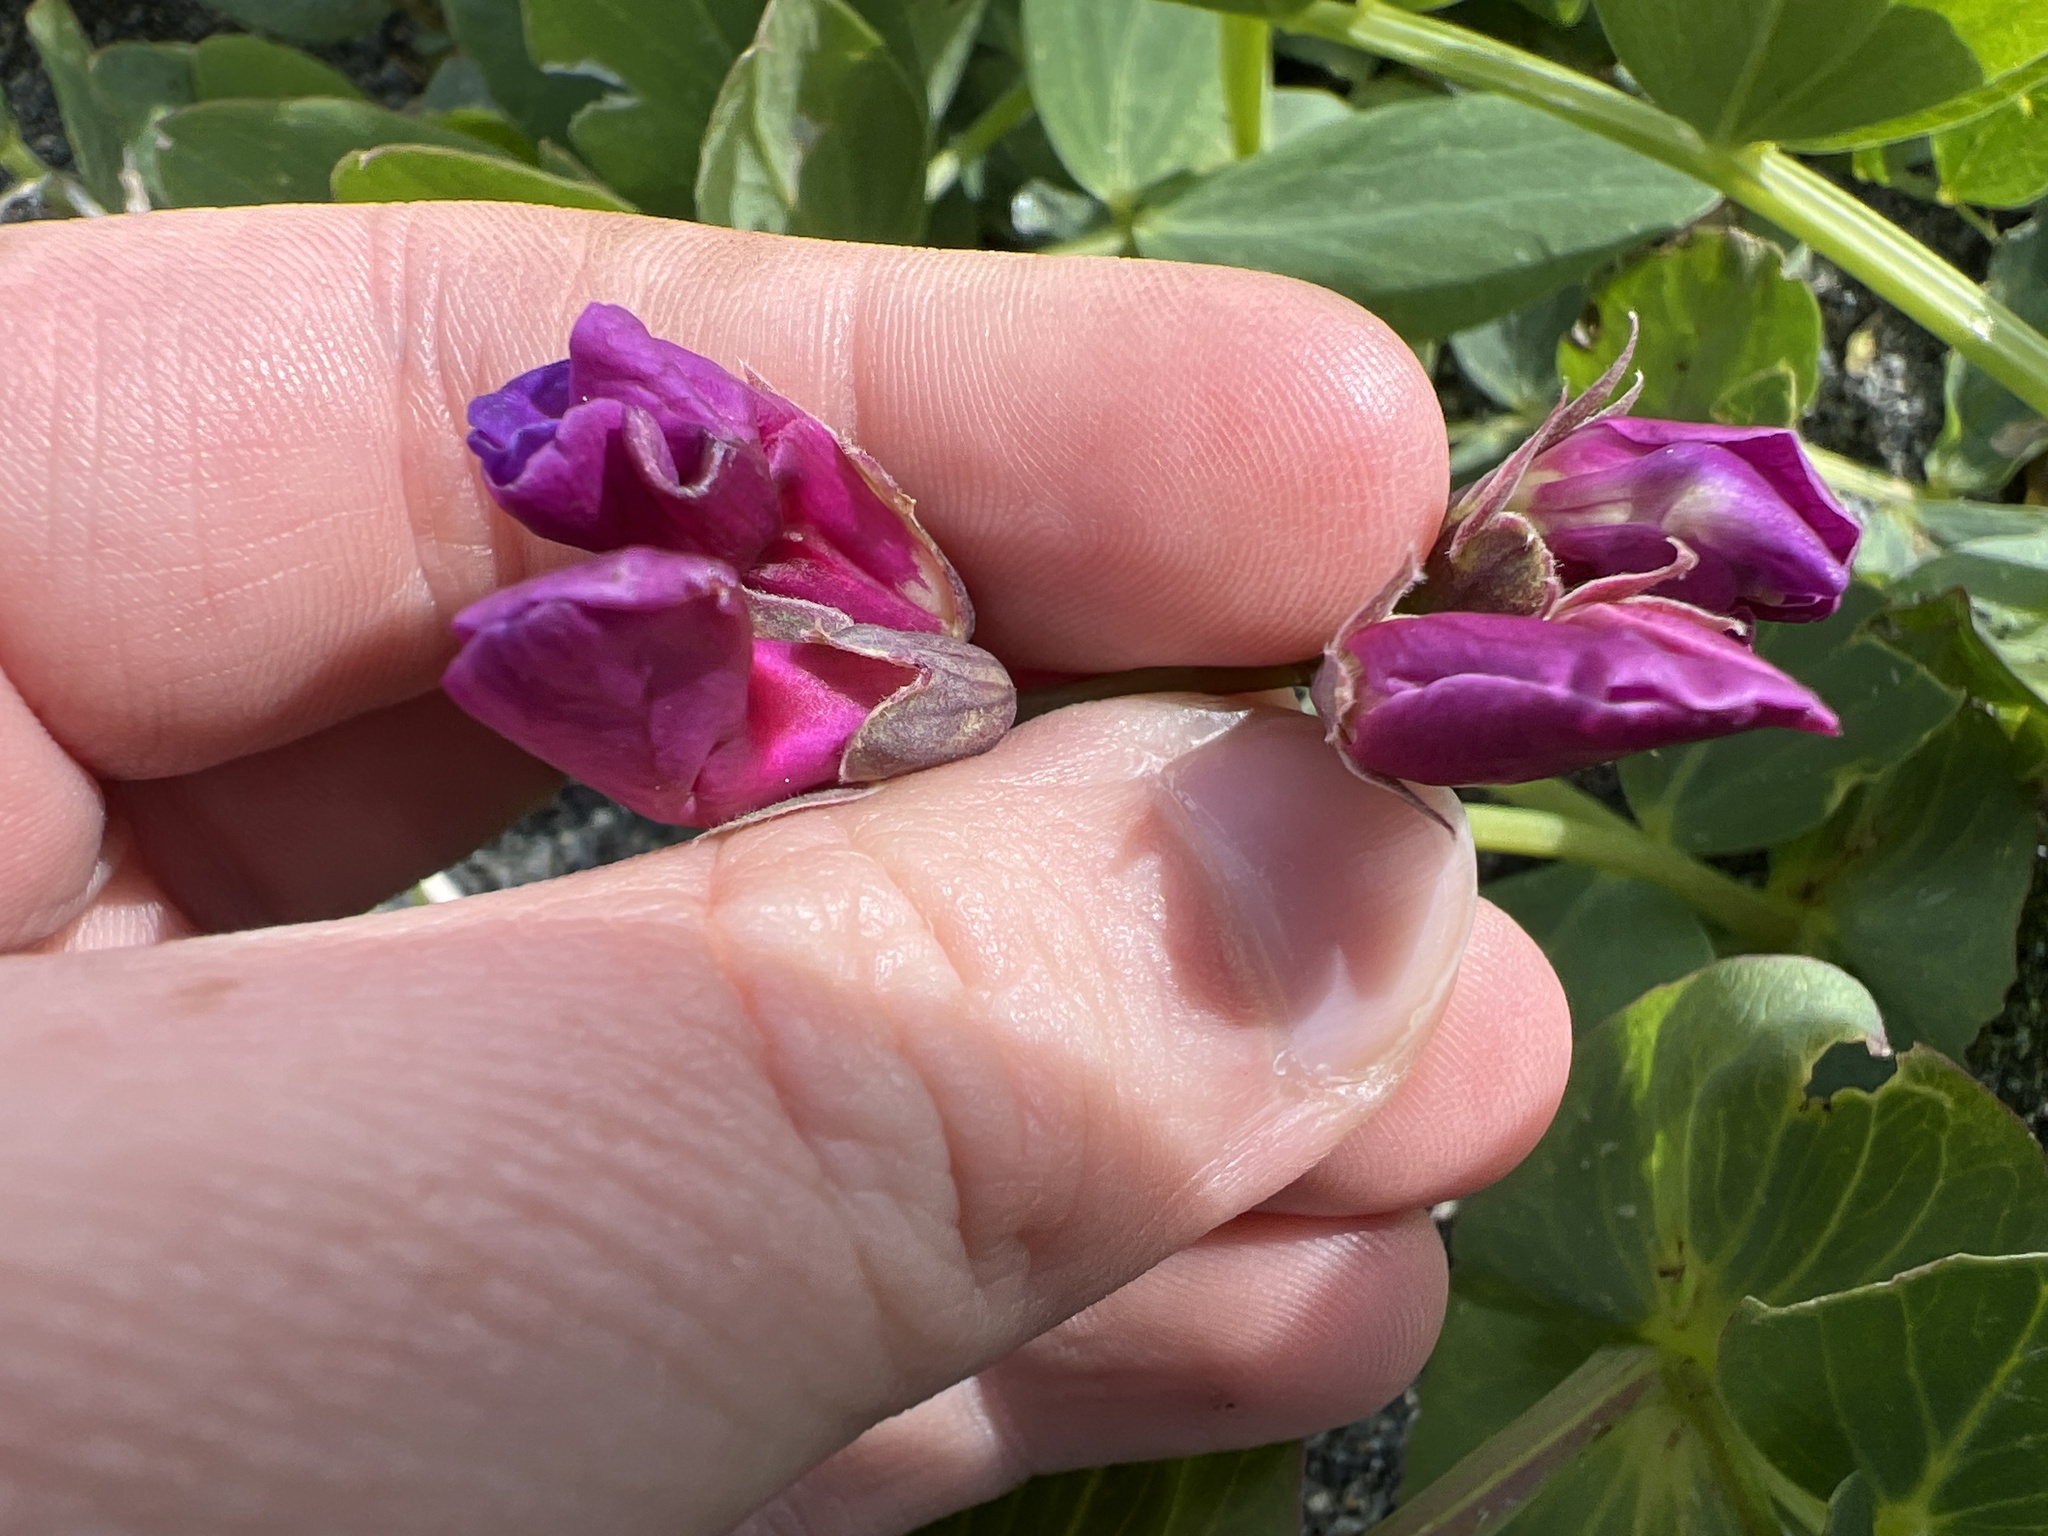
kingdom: Plantae
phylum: Tracheophyta
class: Magnoliopsida
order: Fabales
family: Fabaceae
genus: Lathyrus
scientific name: Lathyrus japonicus
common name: Sea pea
